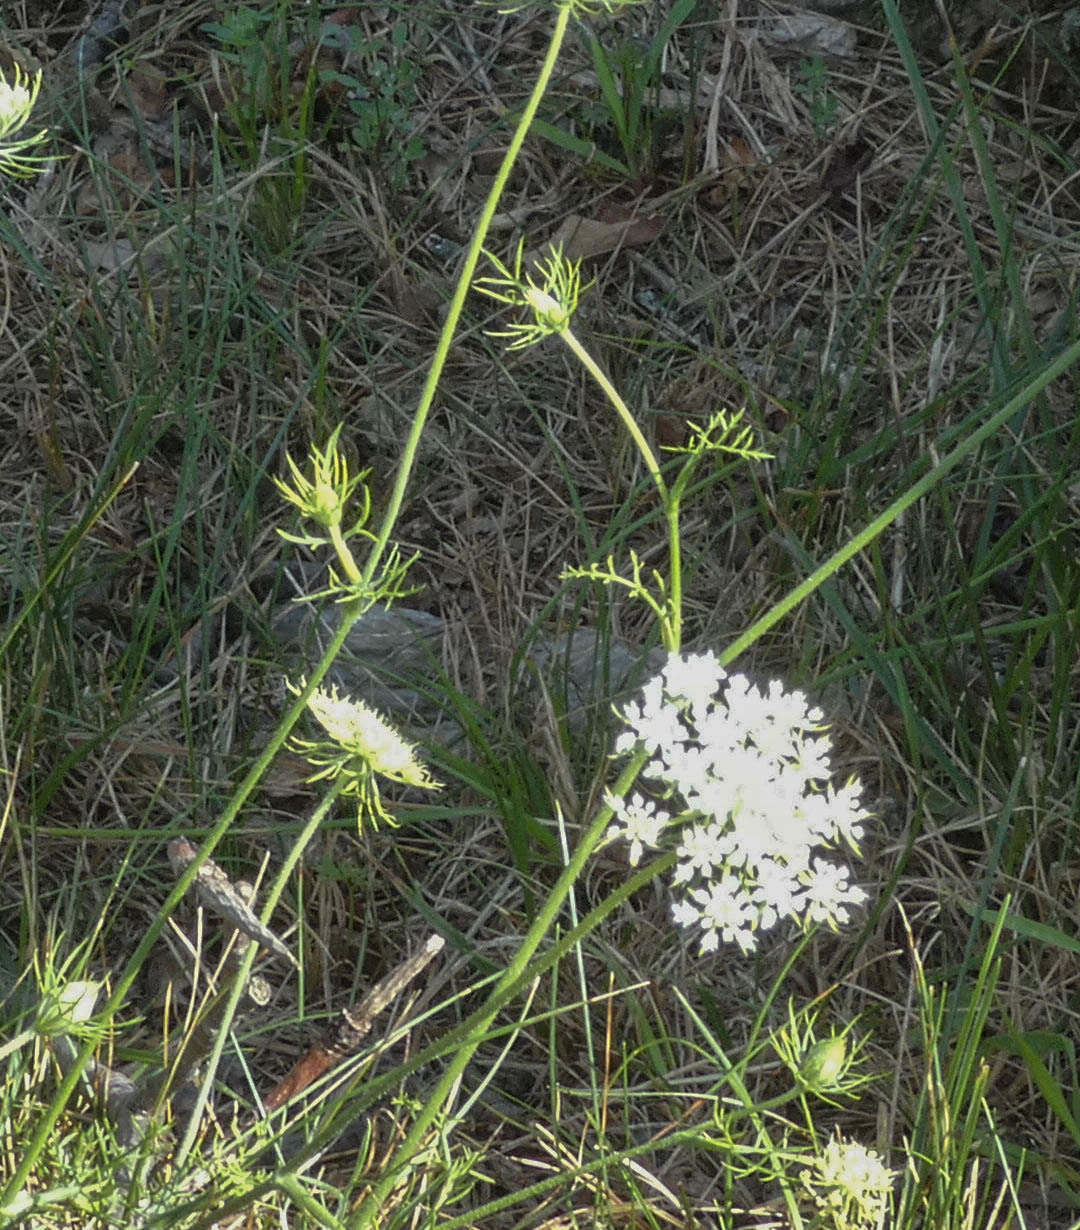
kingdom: Plantae
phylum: Tracheophyta
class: Magnoliopsida
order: Apiales
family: Apiaceae
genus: Daucus
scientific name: Daucus carota
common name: Wild carrot
